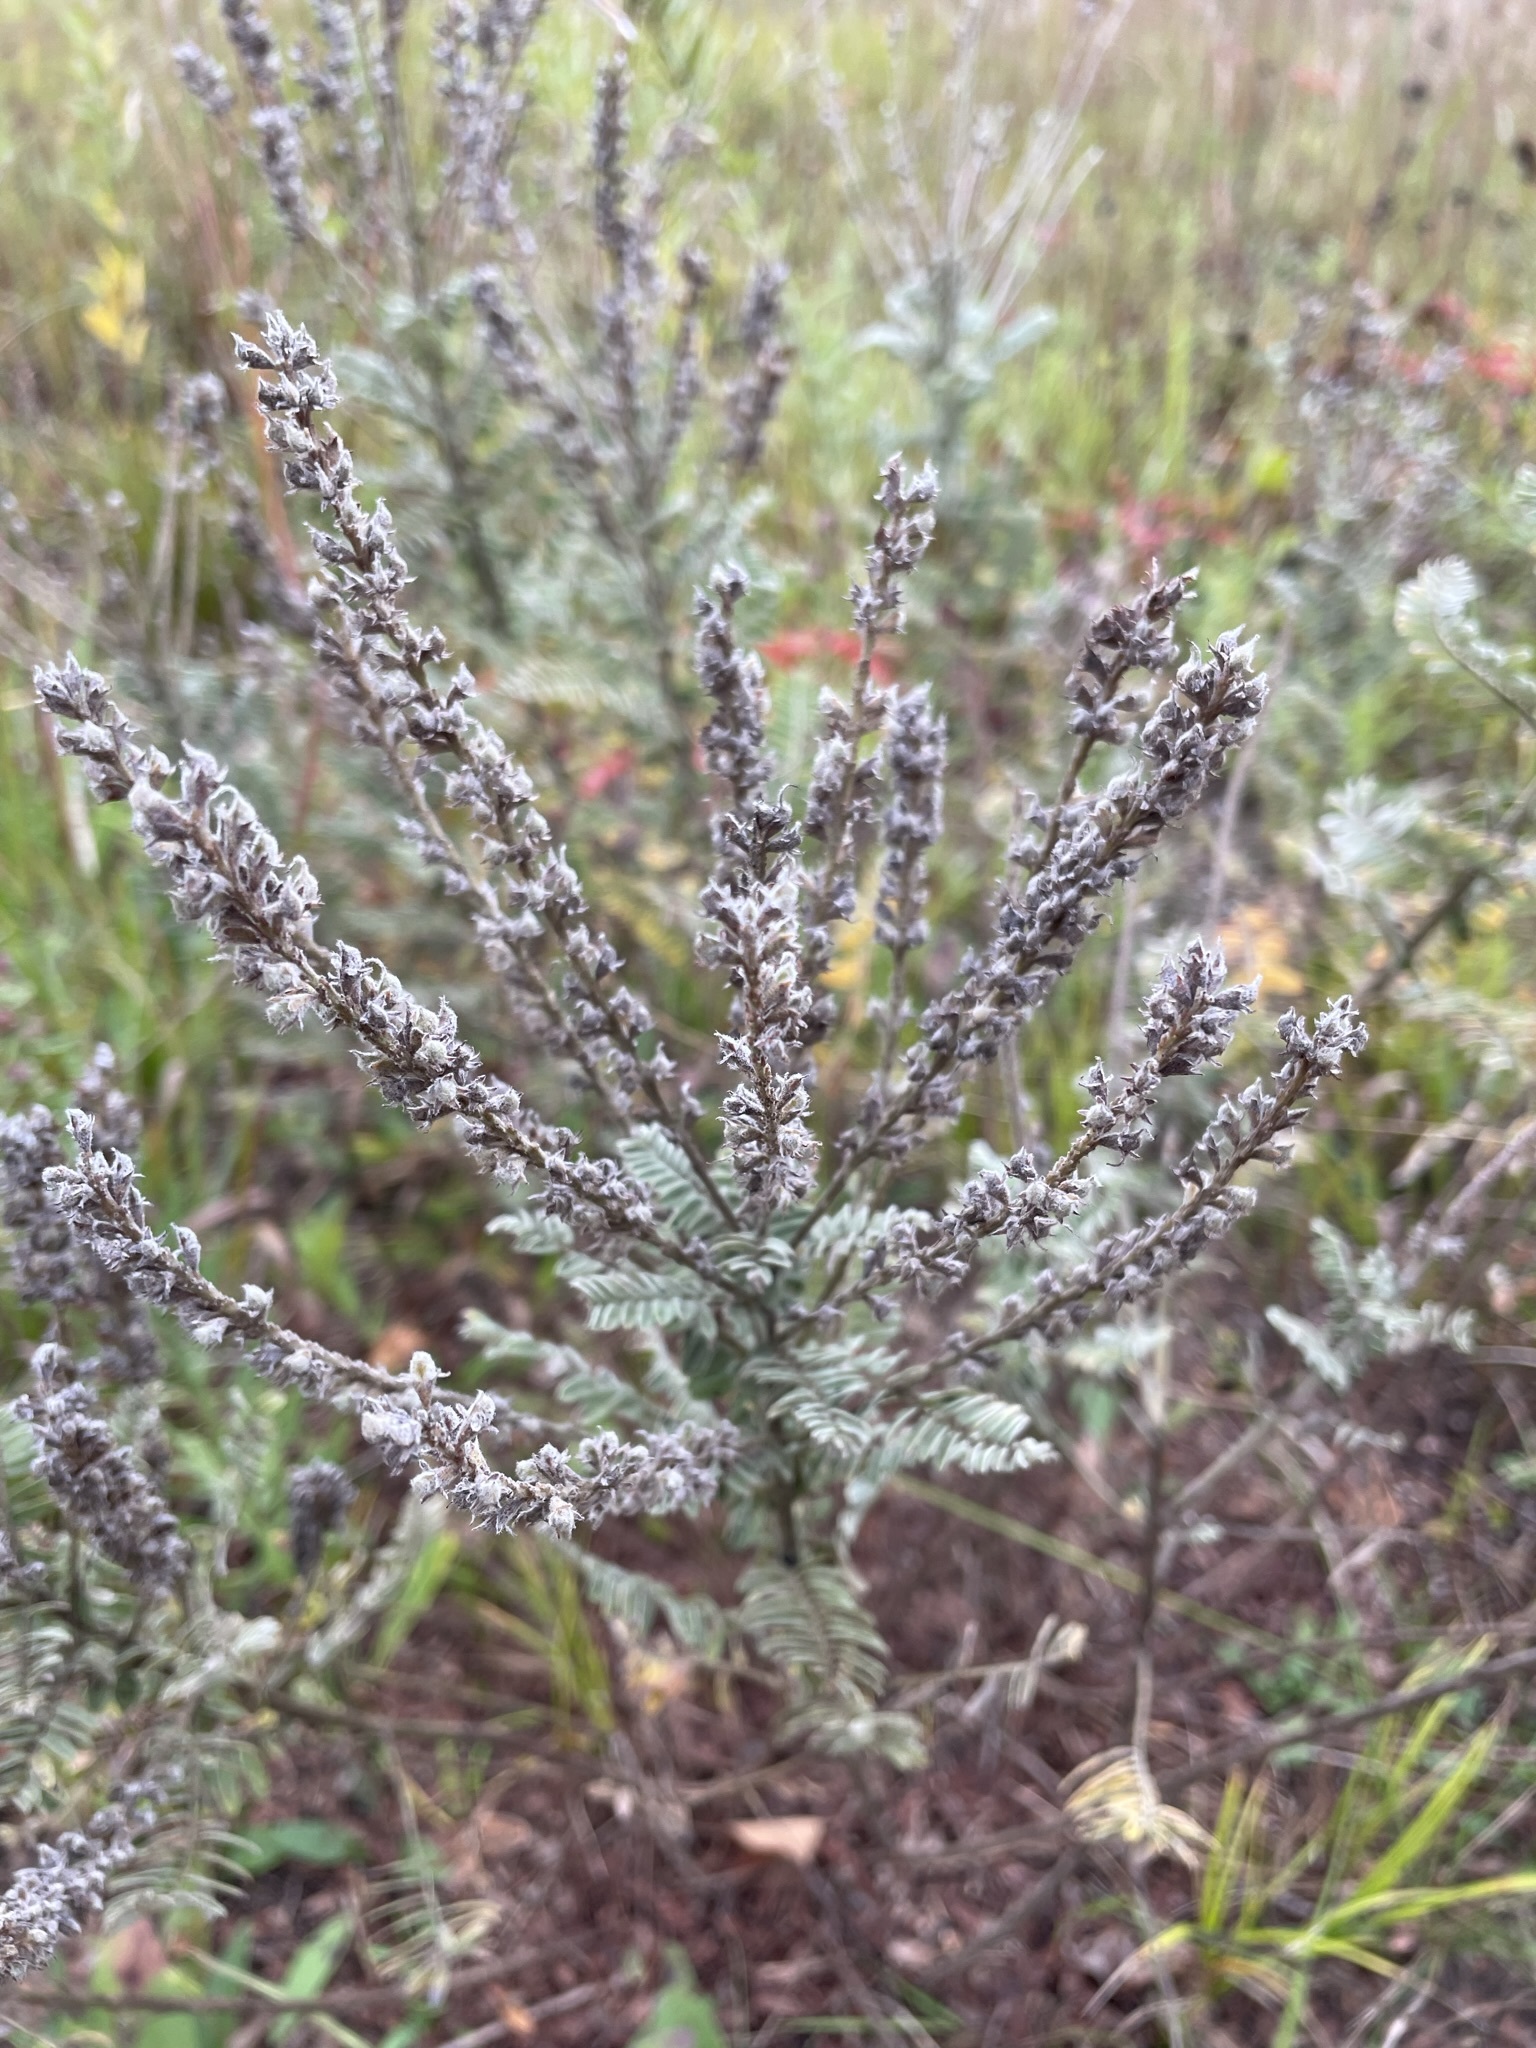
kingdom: Plantae
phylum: Tracheophyta
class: Magnoliopsida
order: Fabales
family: Fabaceae
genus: Amorpha
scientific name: Amorpha canescens
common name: Leadplant
